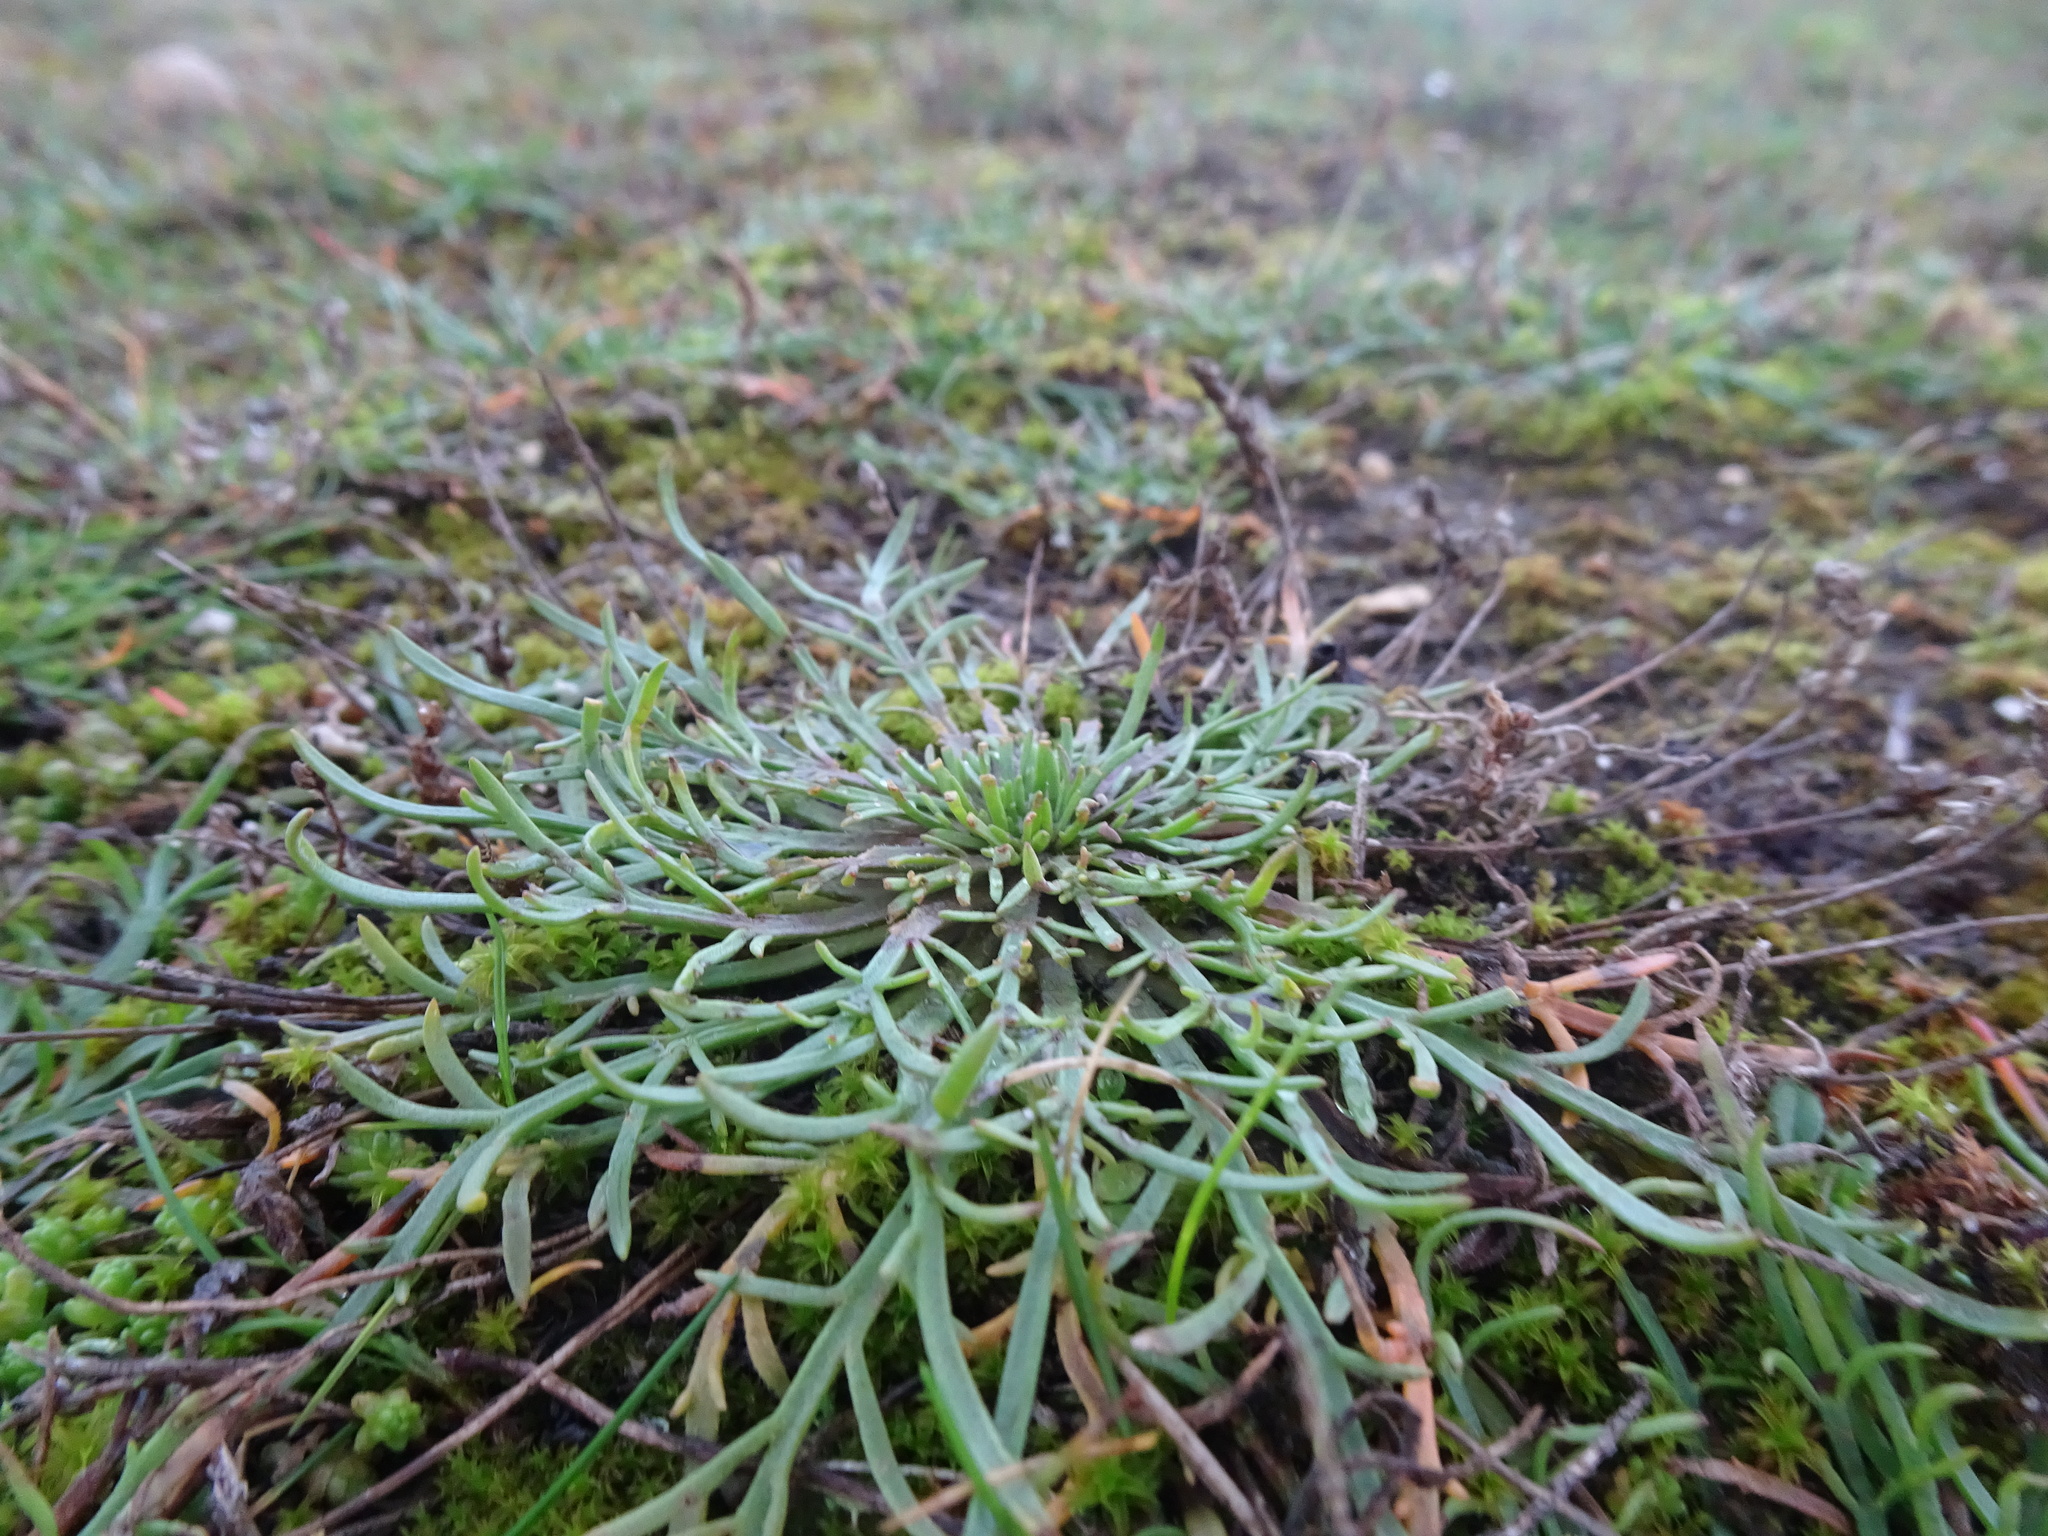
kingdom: Plantae
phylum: Tracheophyta
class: Magnoliopsida
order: Lamiales
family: Plantaginaceae
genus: Plantago
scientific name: Plantago coronopus
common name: Buck's-horn plantain
